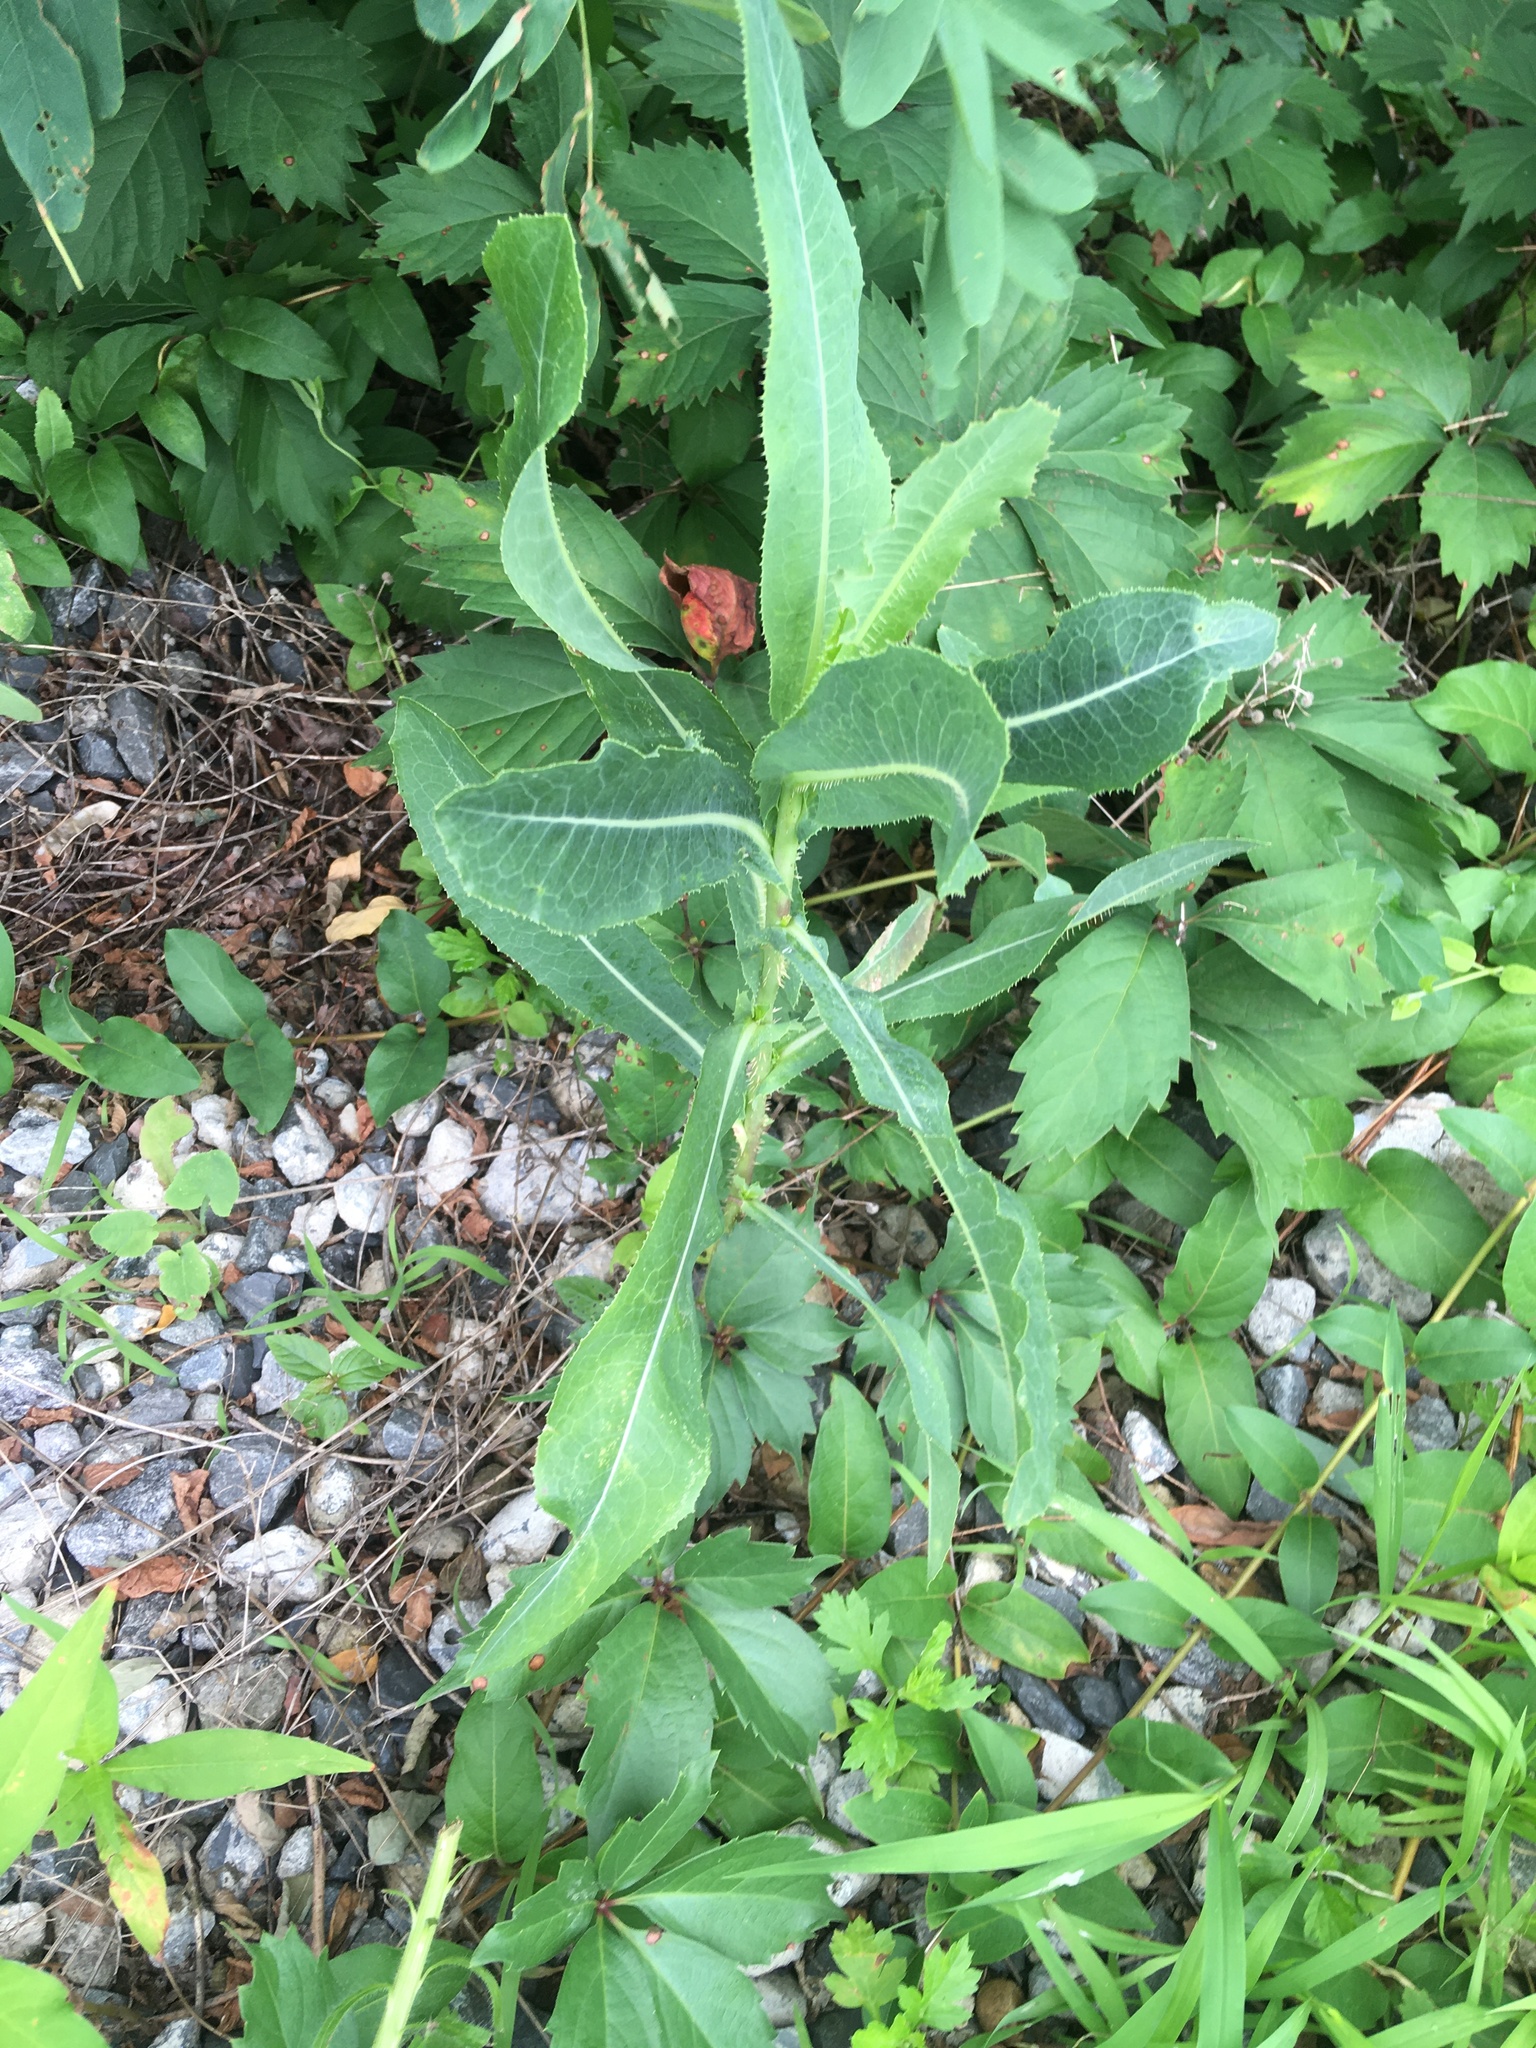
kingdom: Plantae
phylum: Tracheophyta
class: Magnoliopsida
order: Asterales
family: Asteraceae
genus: Lactuca
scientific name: Lactuca serriola
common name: Prickly lettuce
